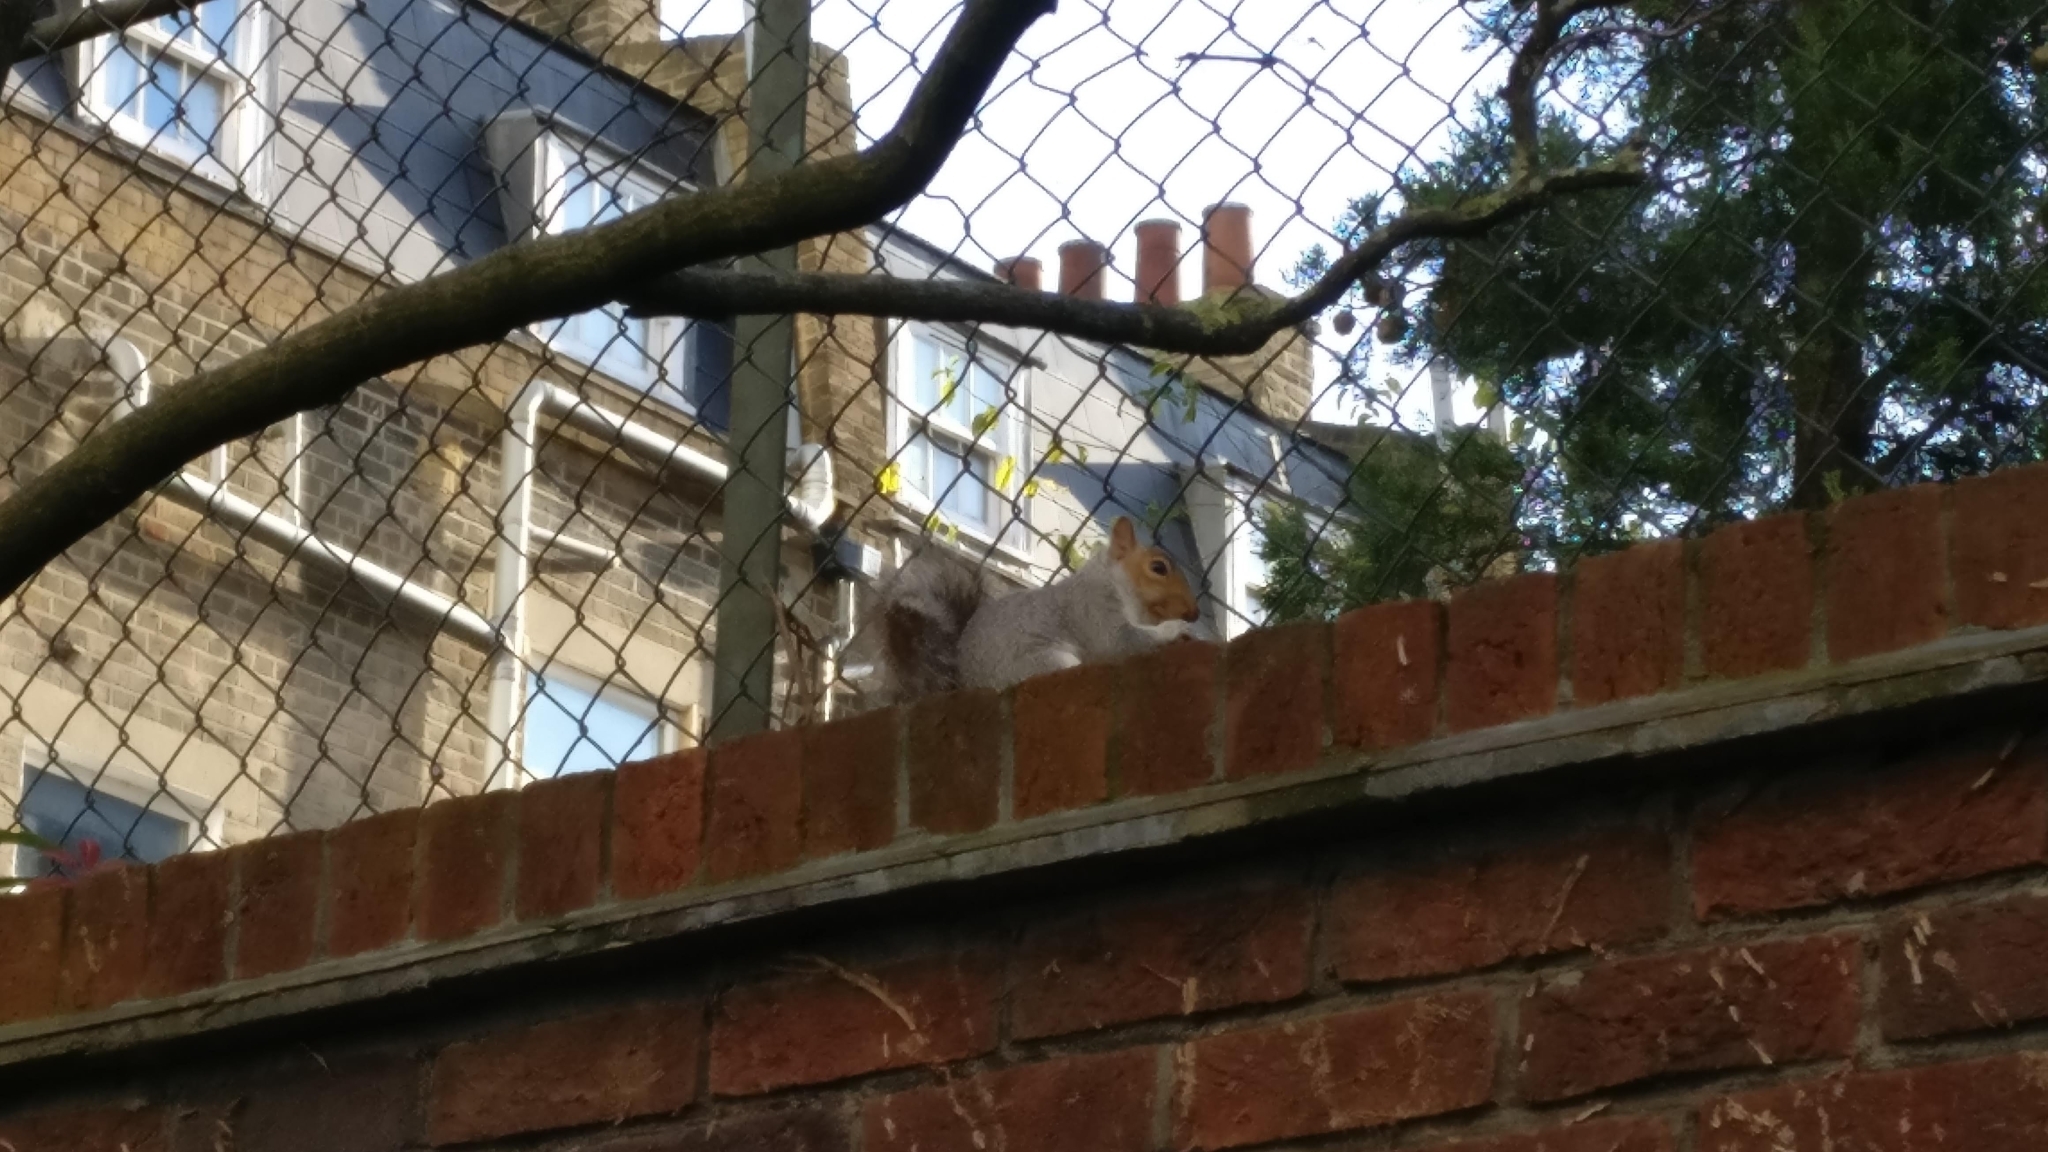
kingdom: Animalia
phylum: Chordata
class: Mammalia
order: Rodentia
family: Sciuridae
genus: Sciurus
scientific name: Sciurus carolinensis
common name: Eastern gray squirrel
